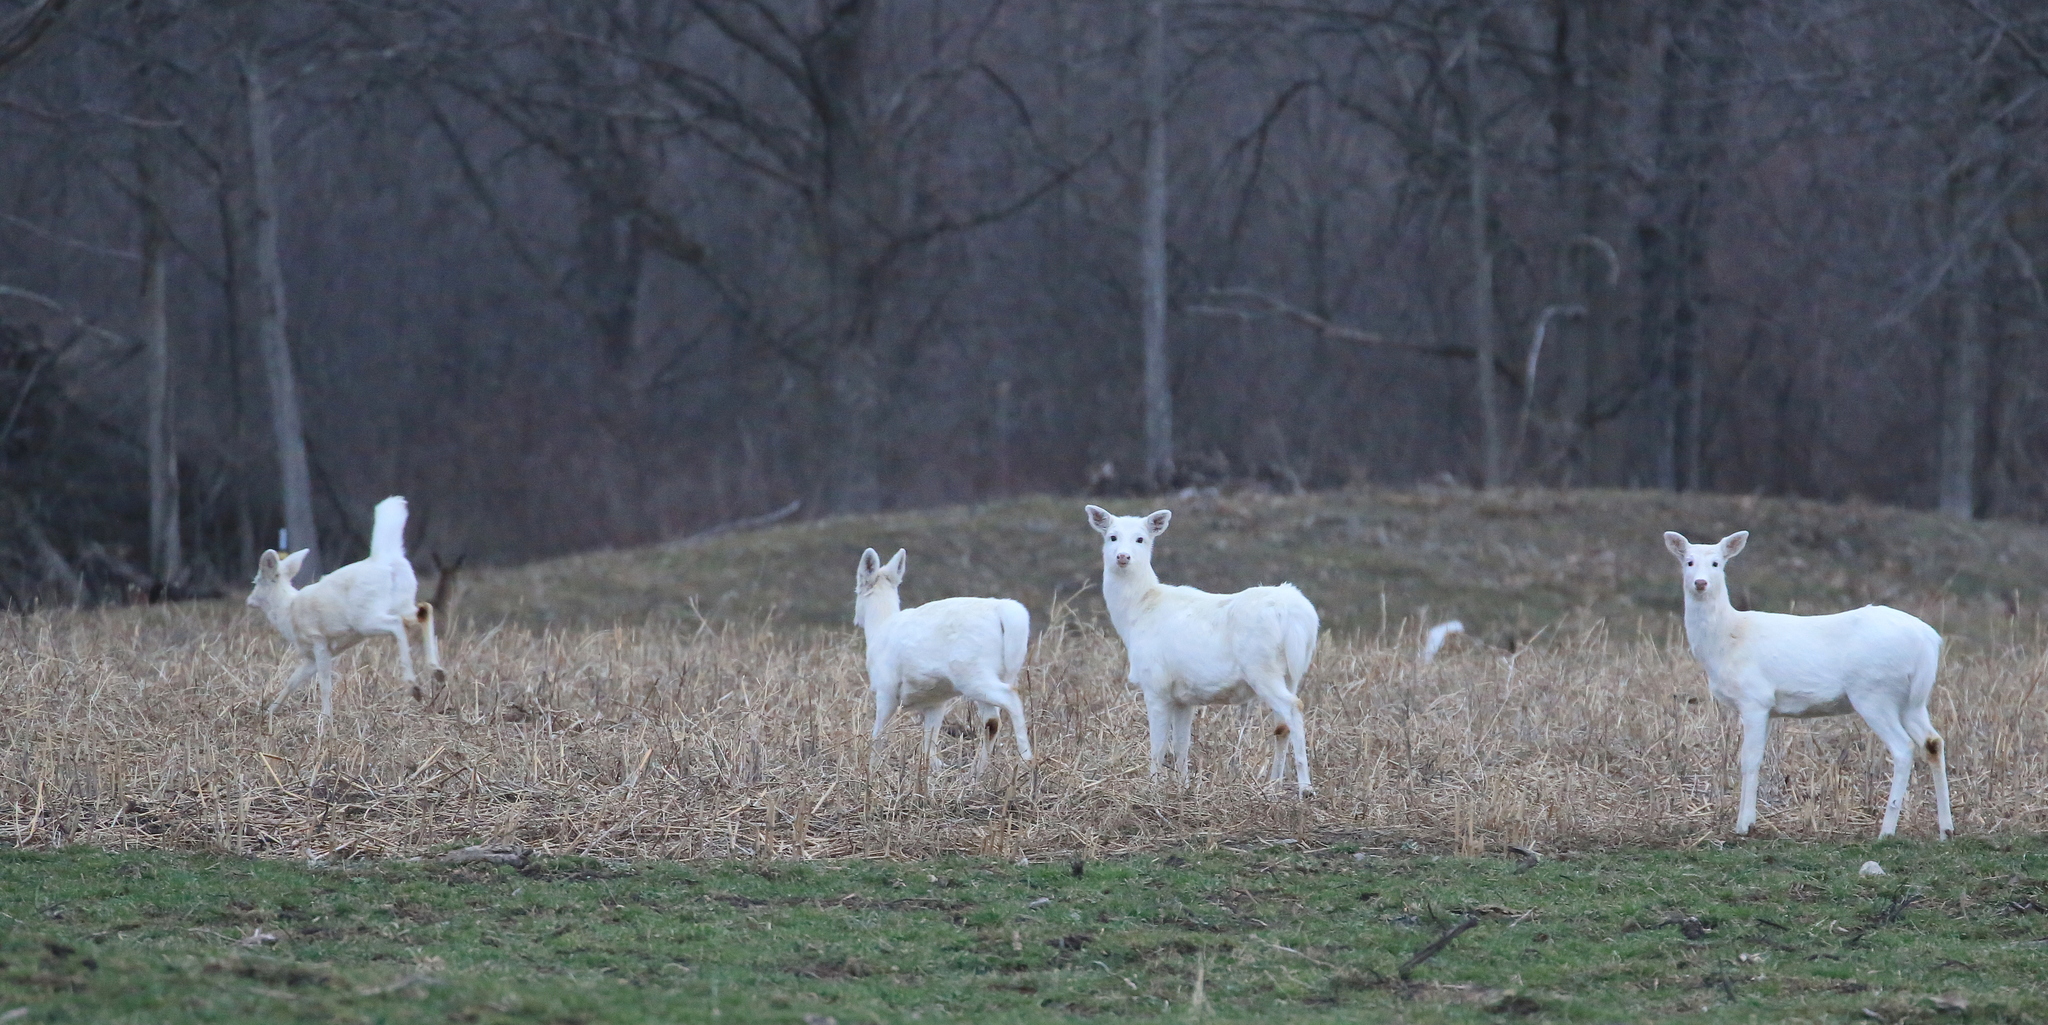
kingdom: Animalia
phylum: Chordata
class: Mammalia
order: Artiodactyla
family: Cervidae
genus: Odocoileus
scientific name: Odocoileus virginianus
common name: White-tailed deer
